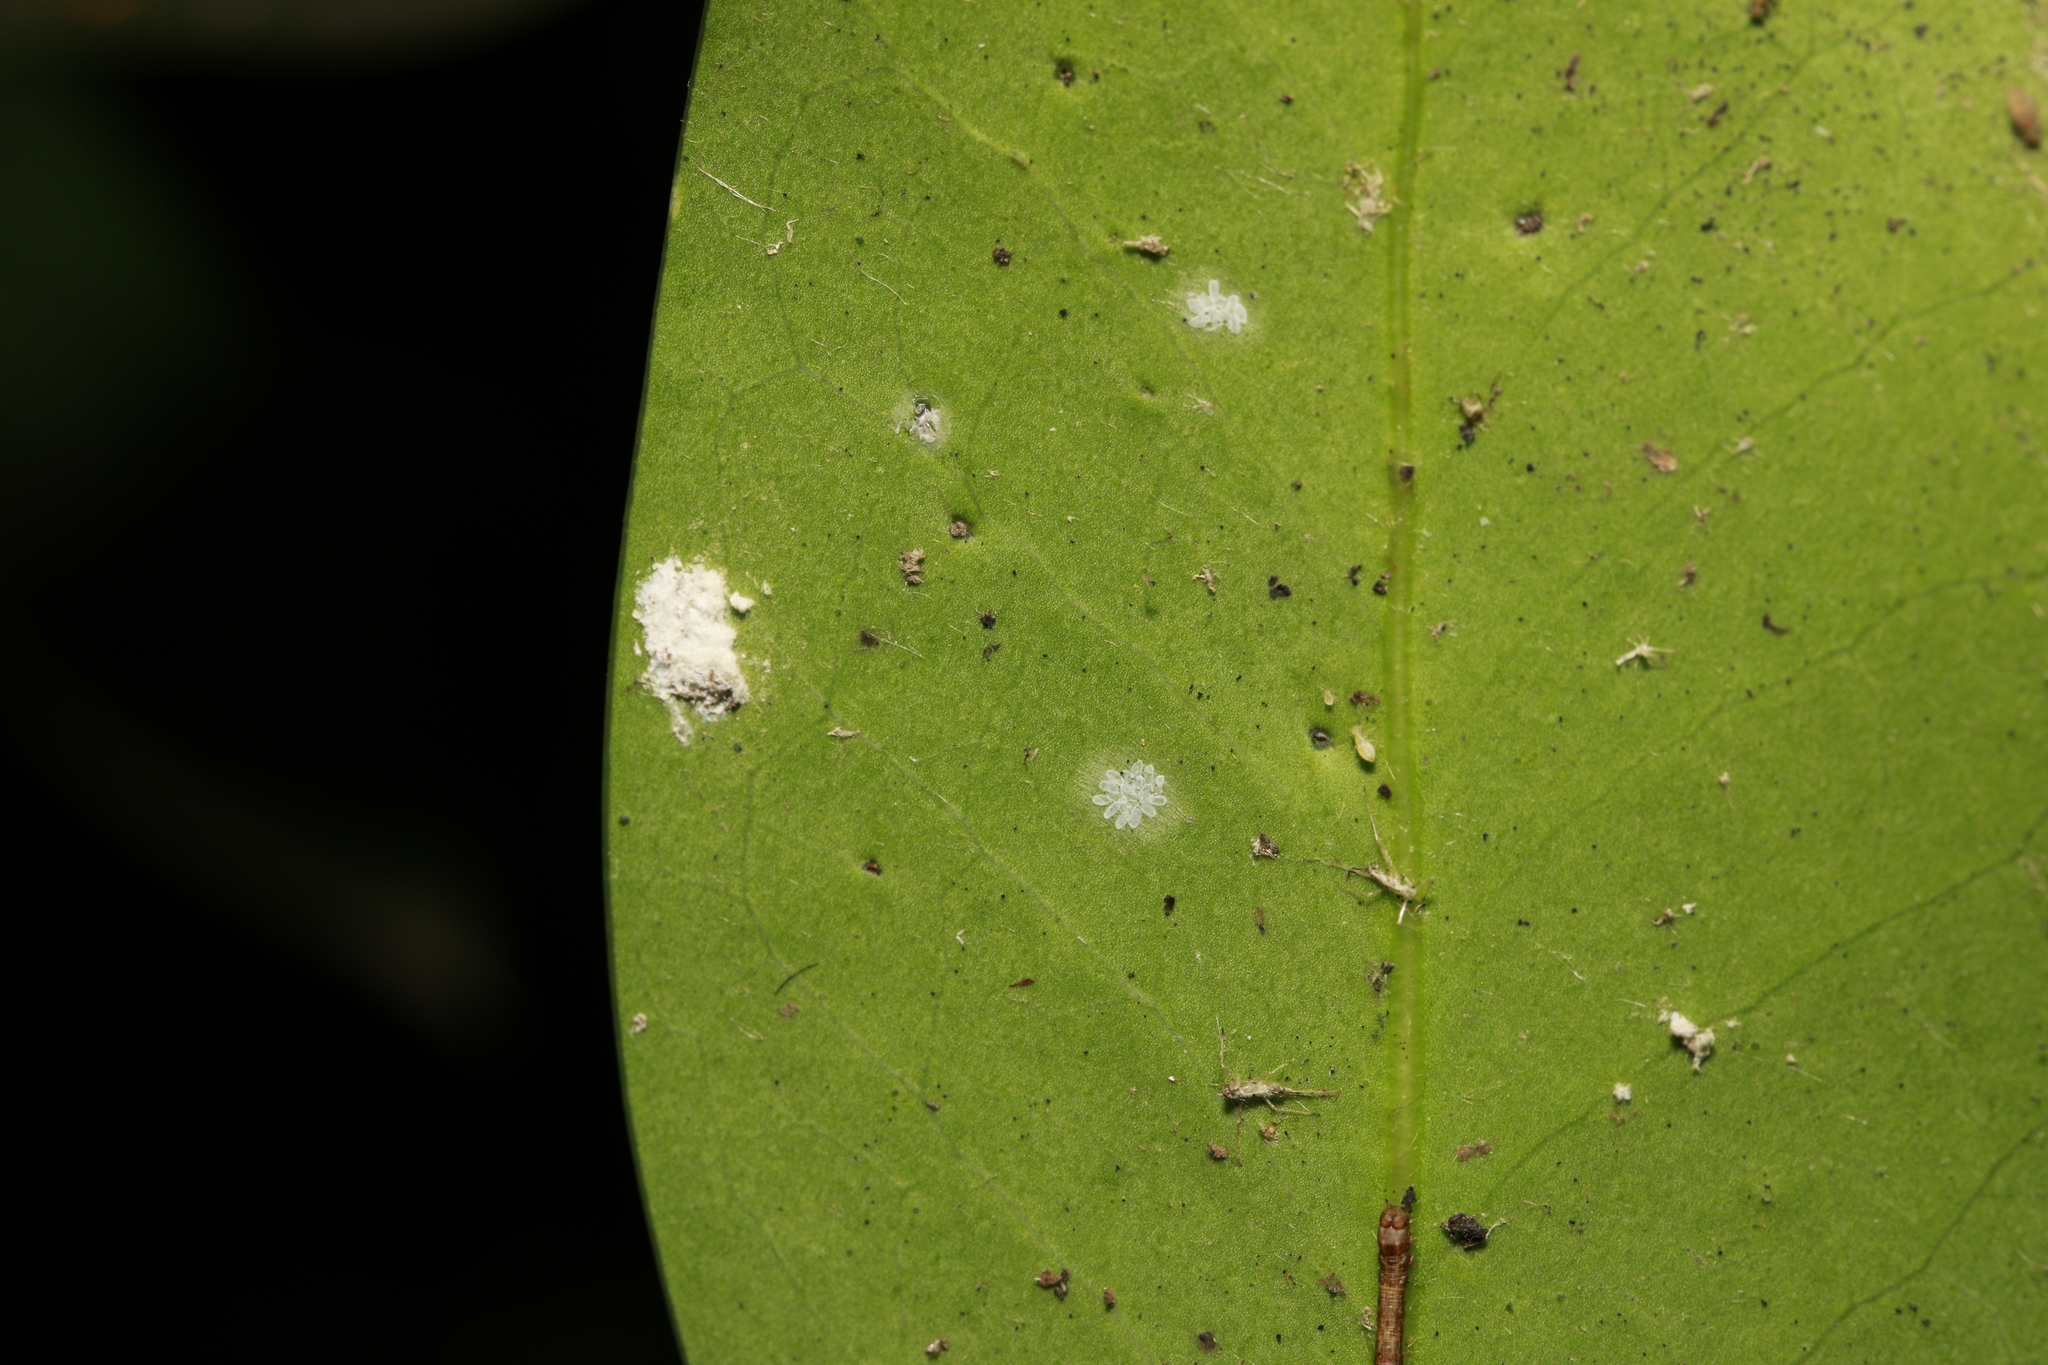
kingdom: Animalia
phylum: Arthropoda
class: Insecta
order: Hemiptera
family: Coccidae
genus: Pulvinaria
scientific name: Pulvinaria floccifera
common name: Cottony camellia scale
